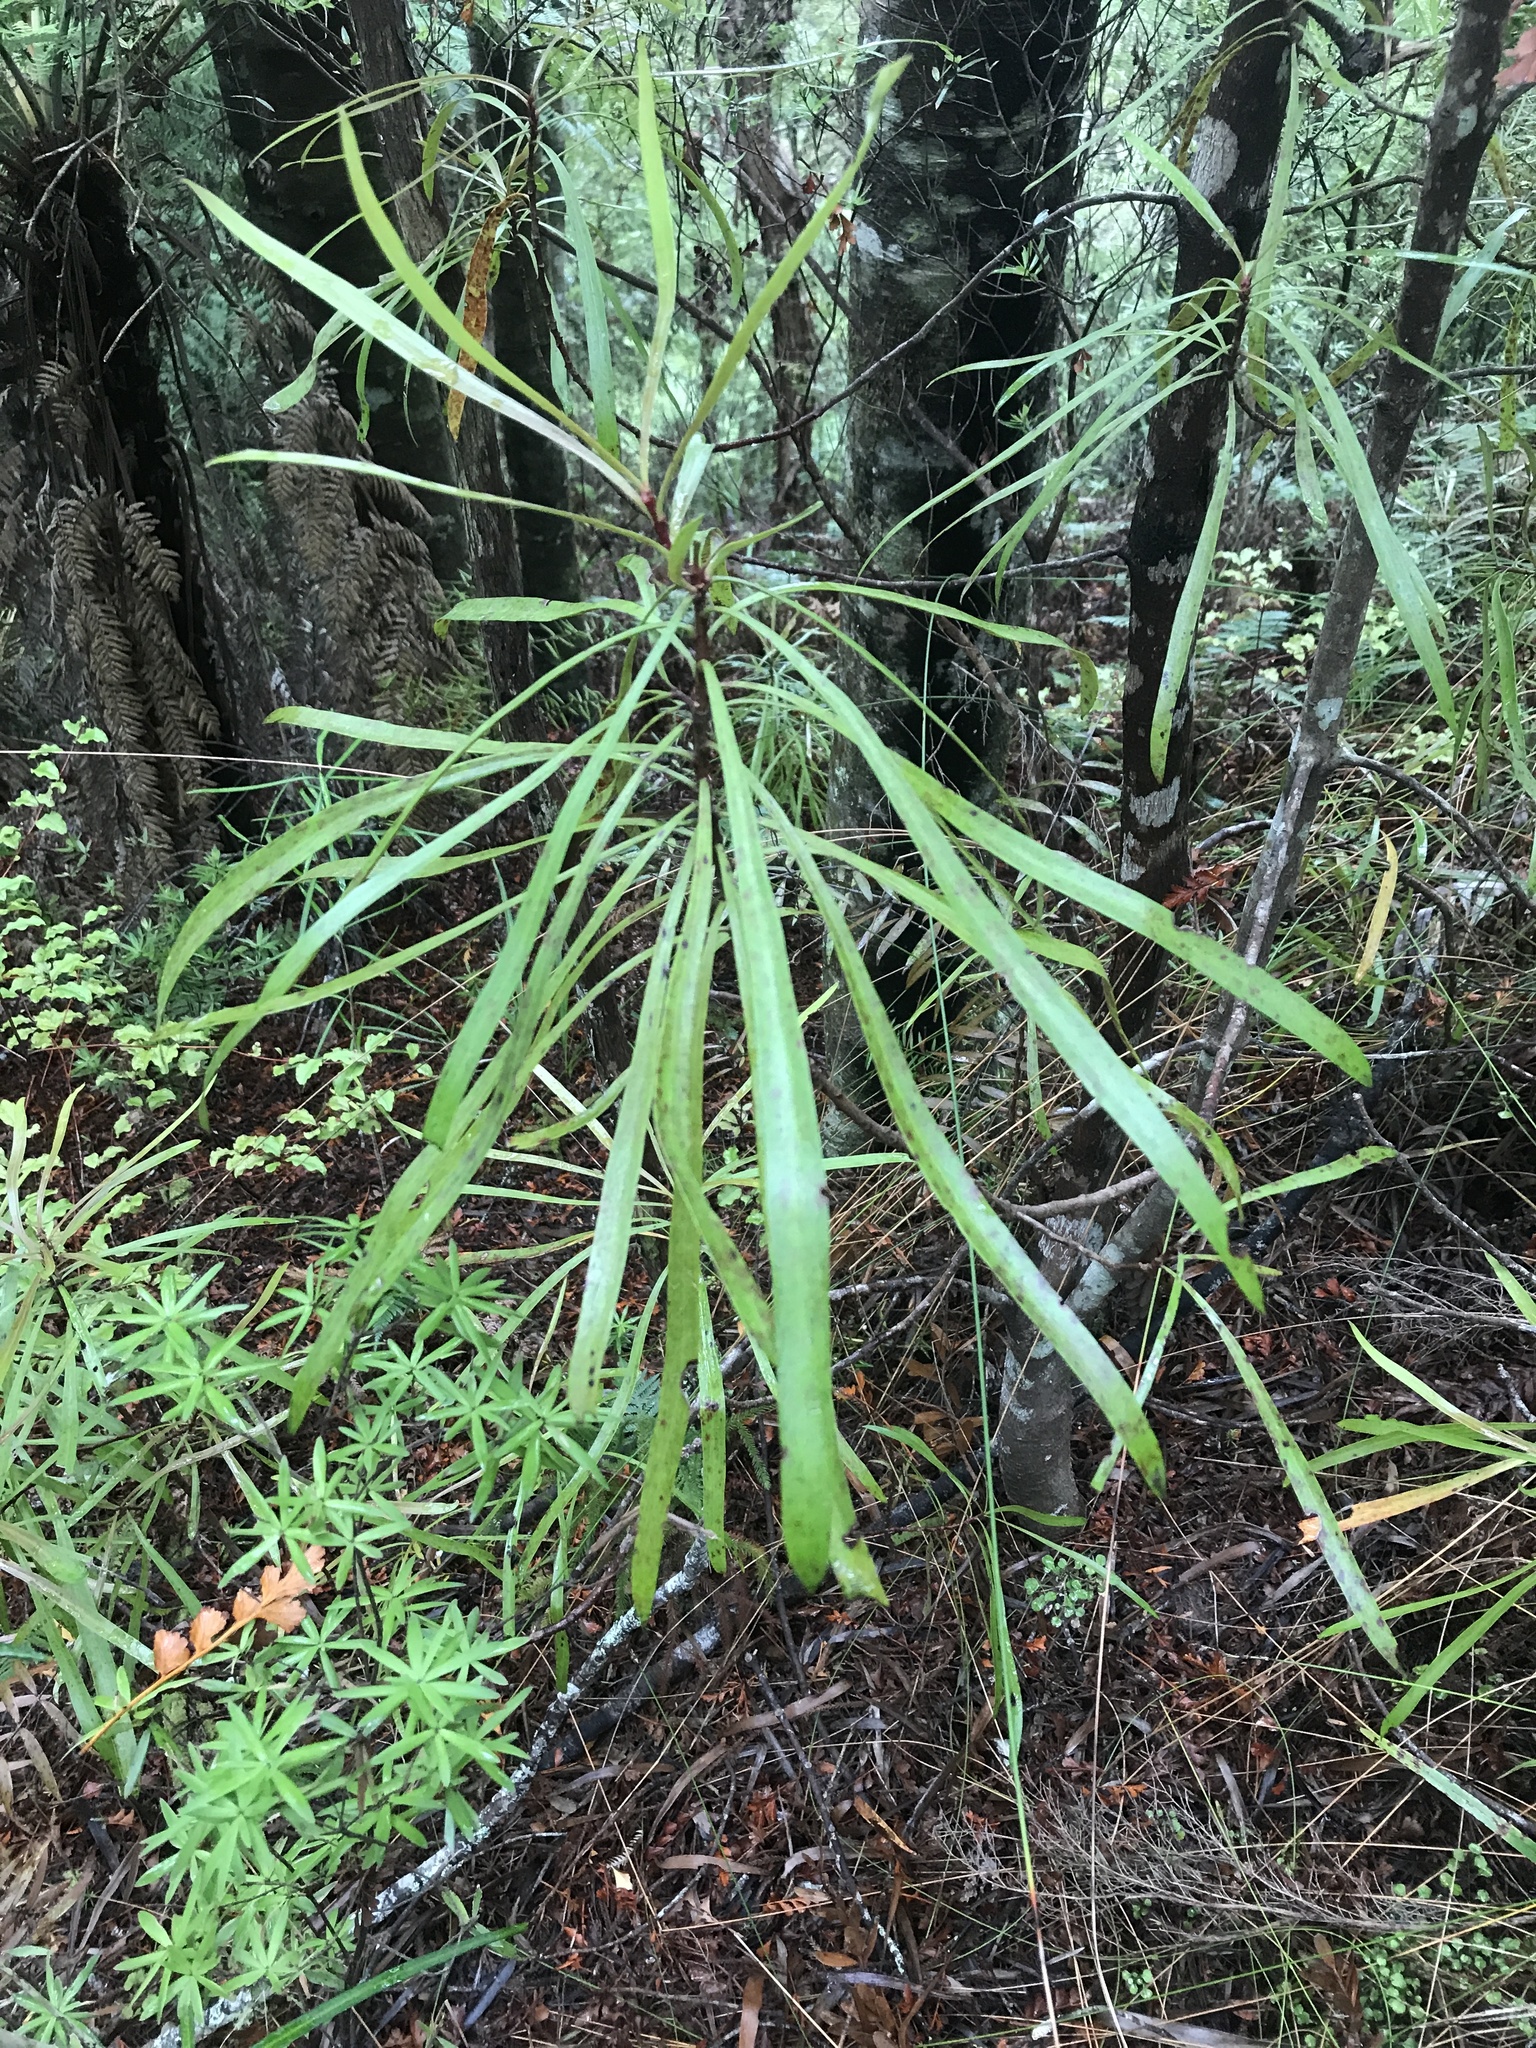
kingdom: Plantae
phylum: Tracheophyta
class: Magnoliopsida
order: Proteales
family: Proteaceae
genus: Toronia
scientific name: Toronia toru
